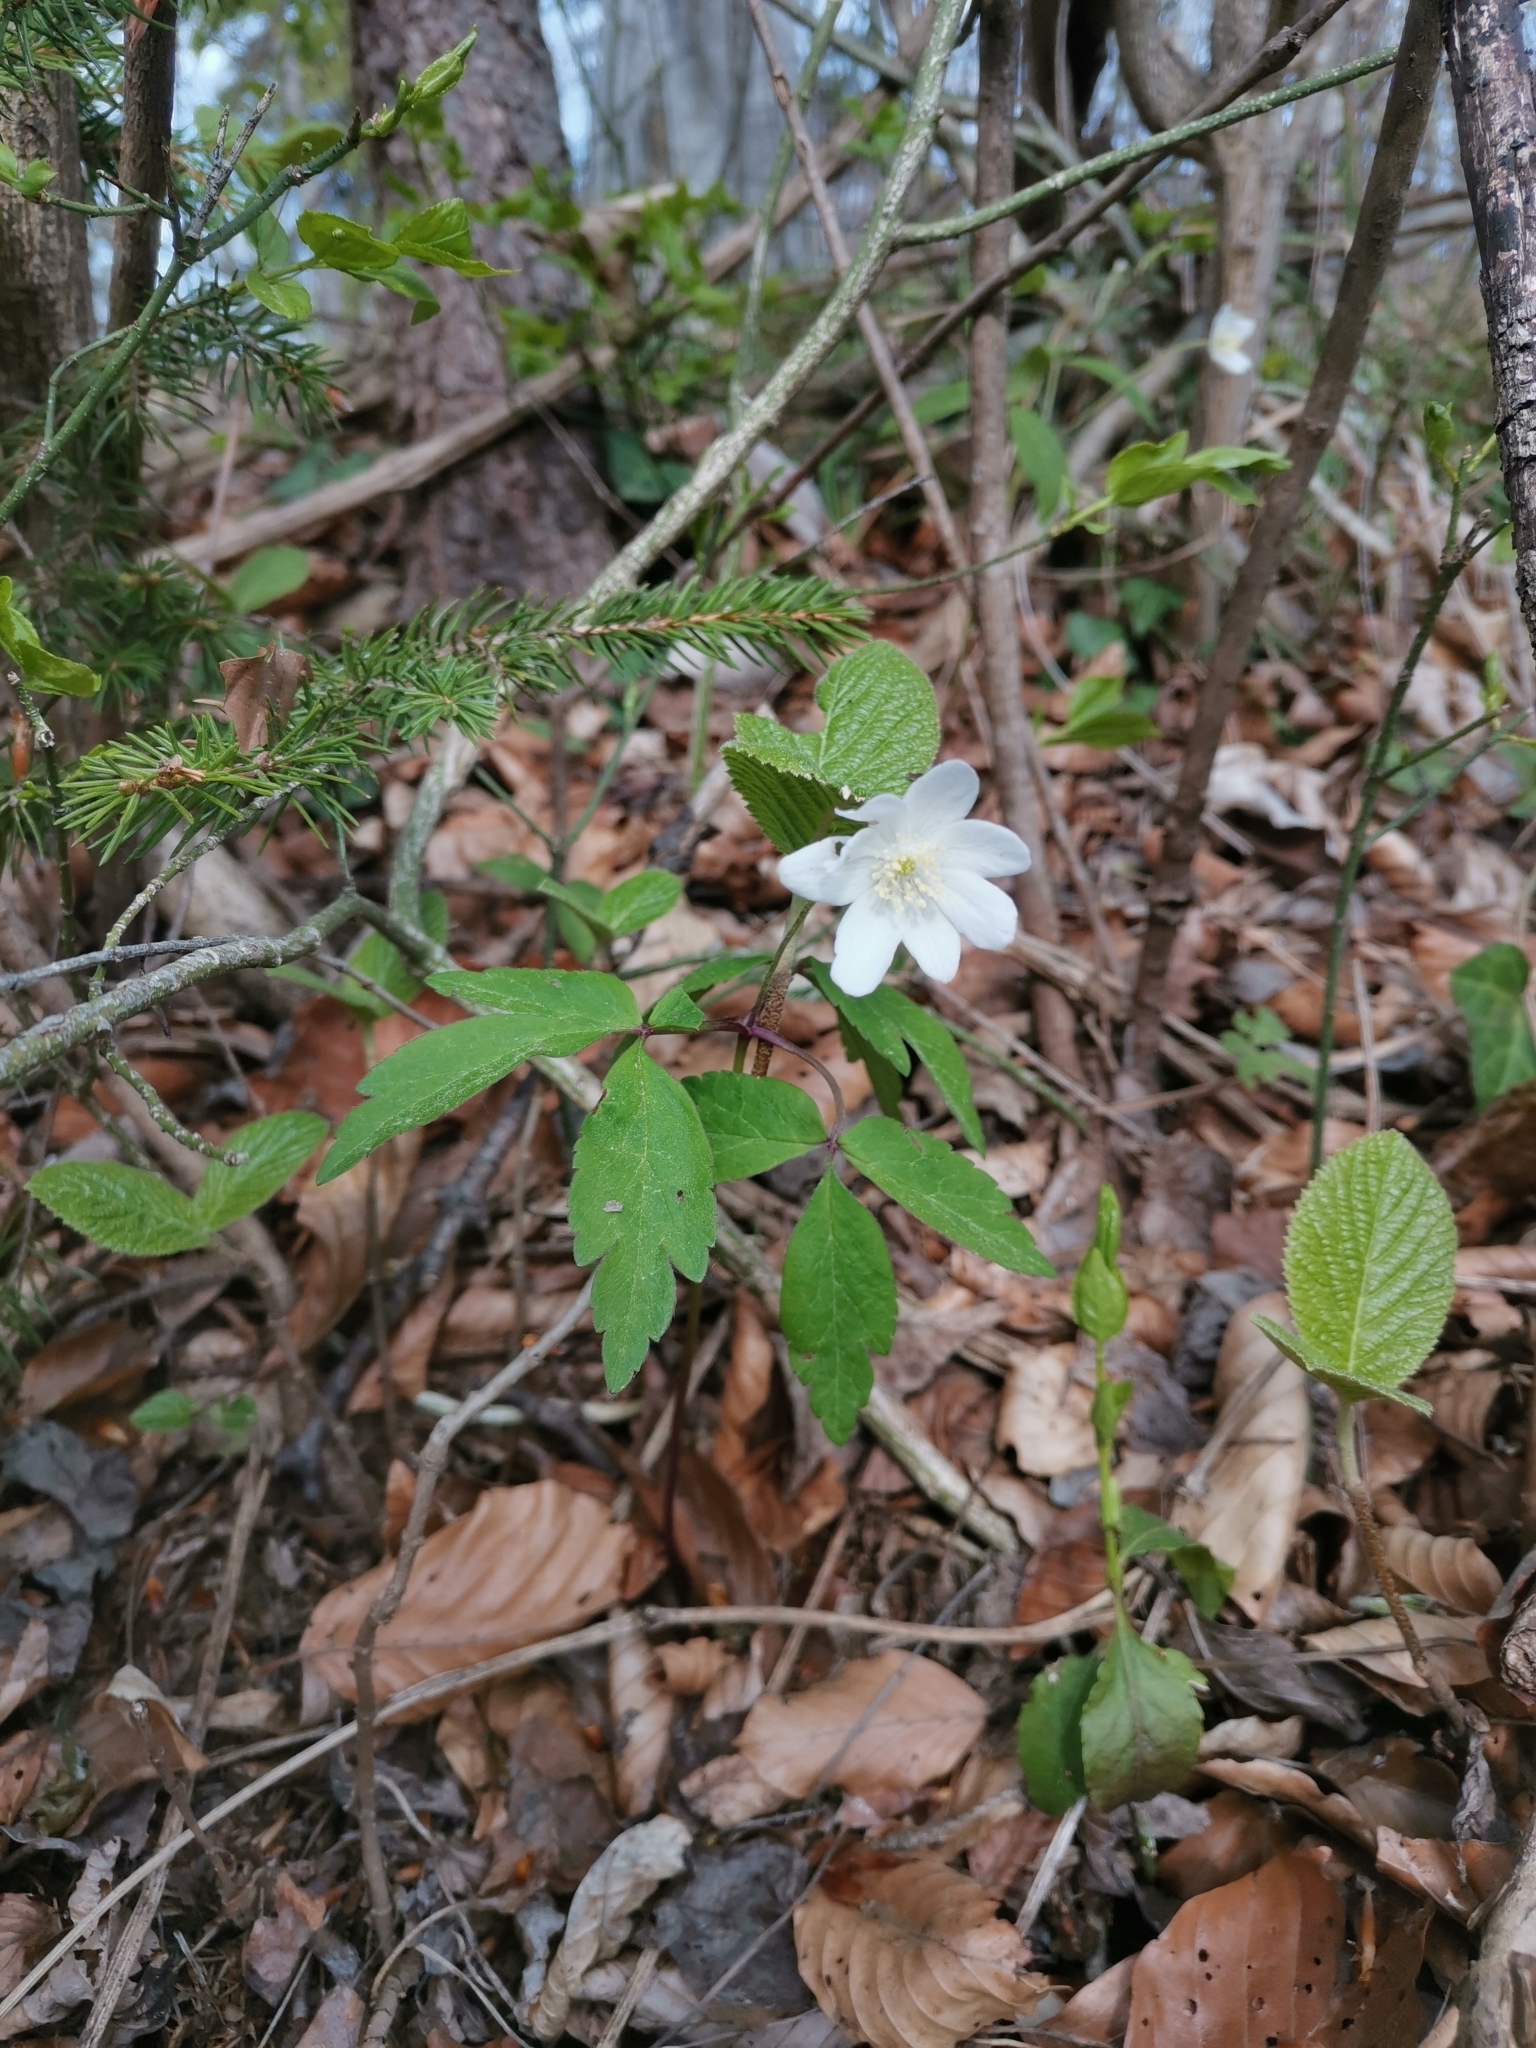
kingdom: Plantae
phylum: Tracheophyta
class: Magnoliopsida
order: Ranunculales
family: Ranunculaceae
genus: Anemone
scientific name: Anemone pittonii
